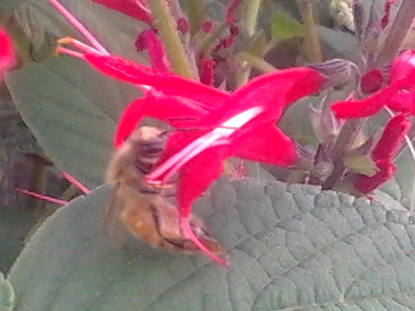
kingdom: Animalia
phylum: Arthropoda
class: Insecta
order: Hymenoptera
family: Apidae
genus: Apis
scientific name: Apis mellifera
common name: Honey bee
